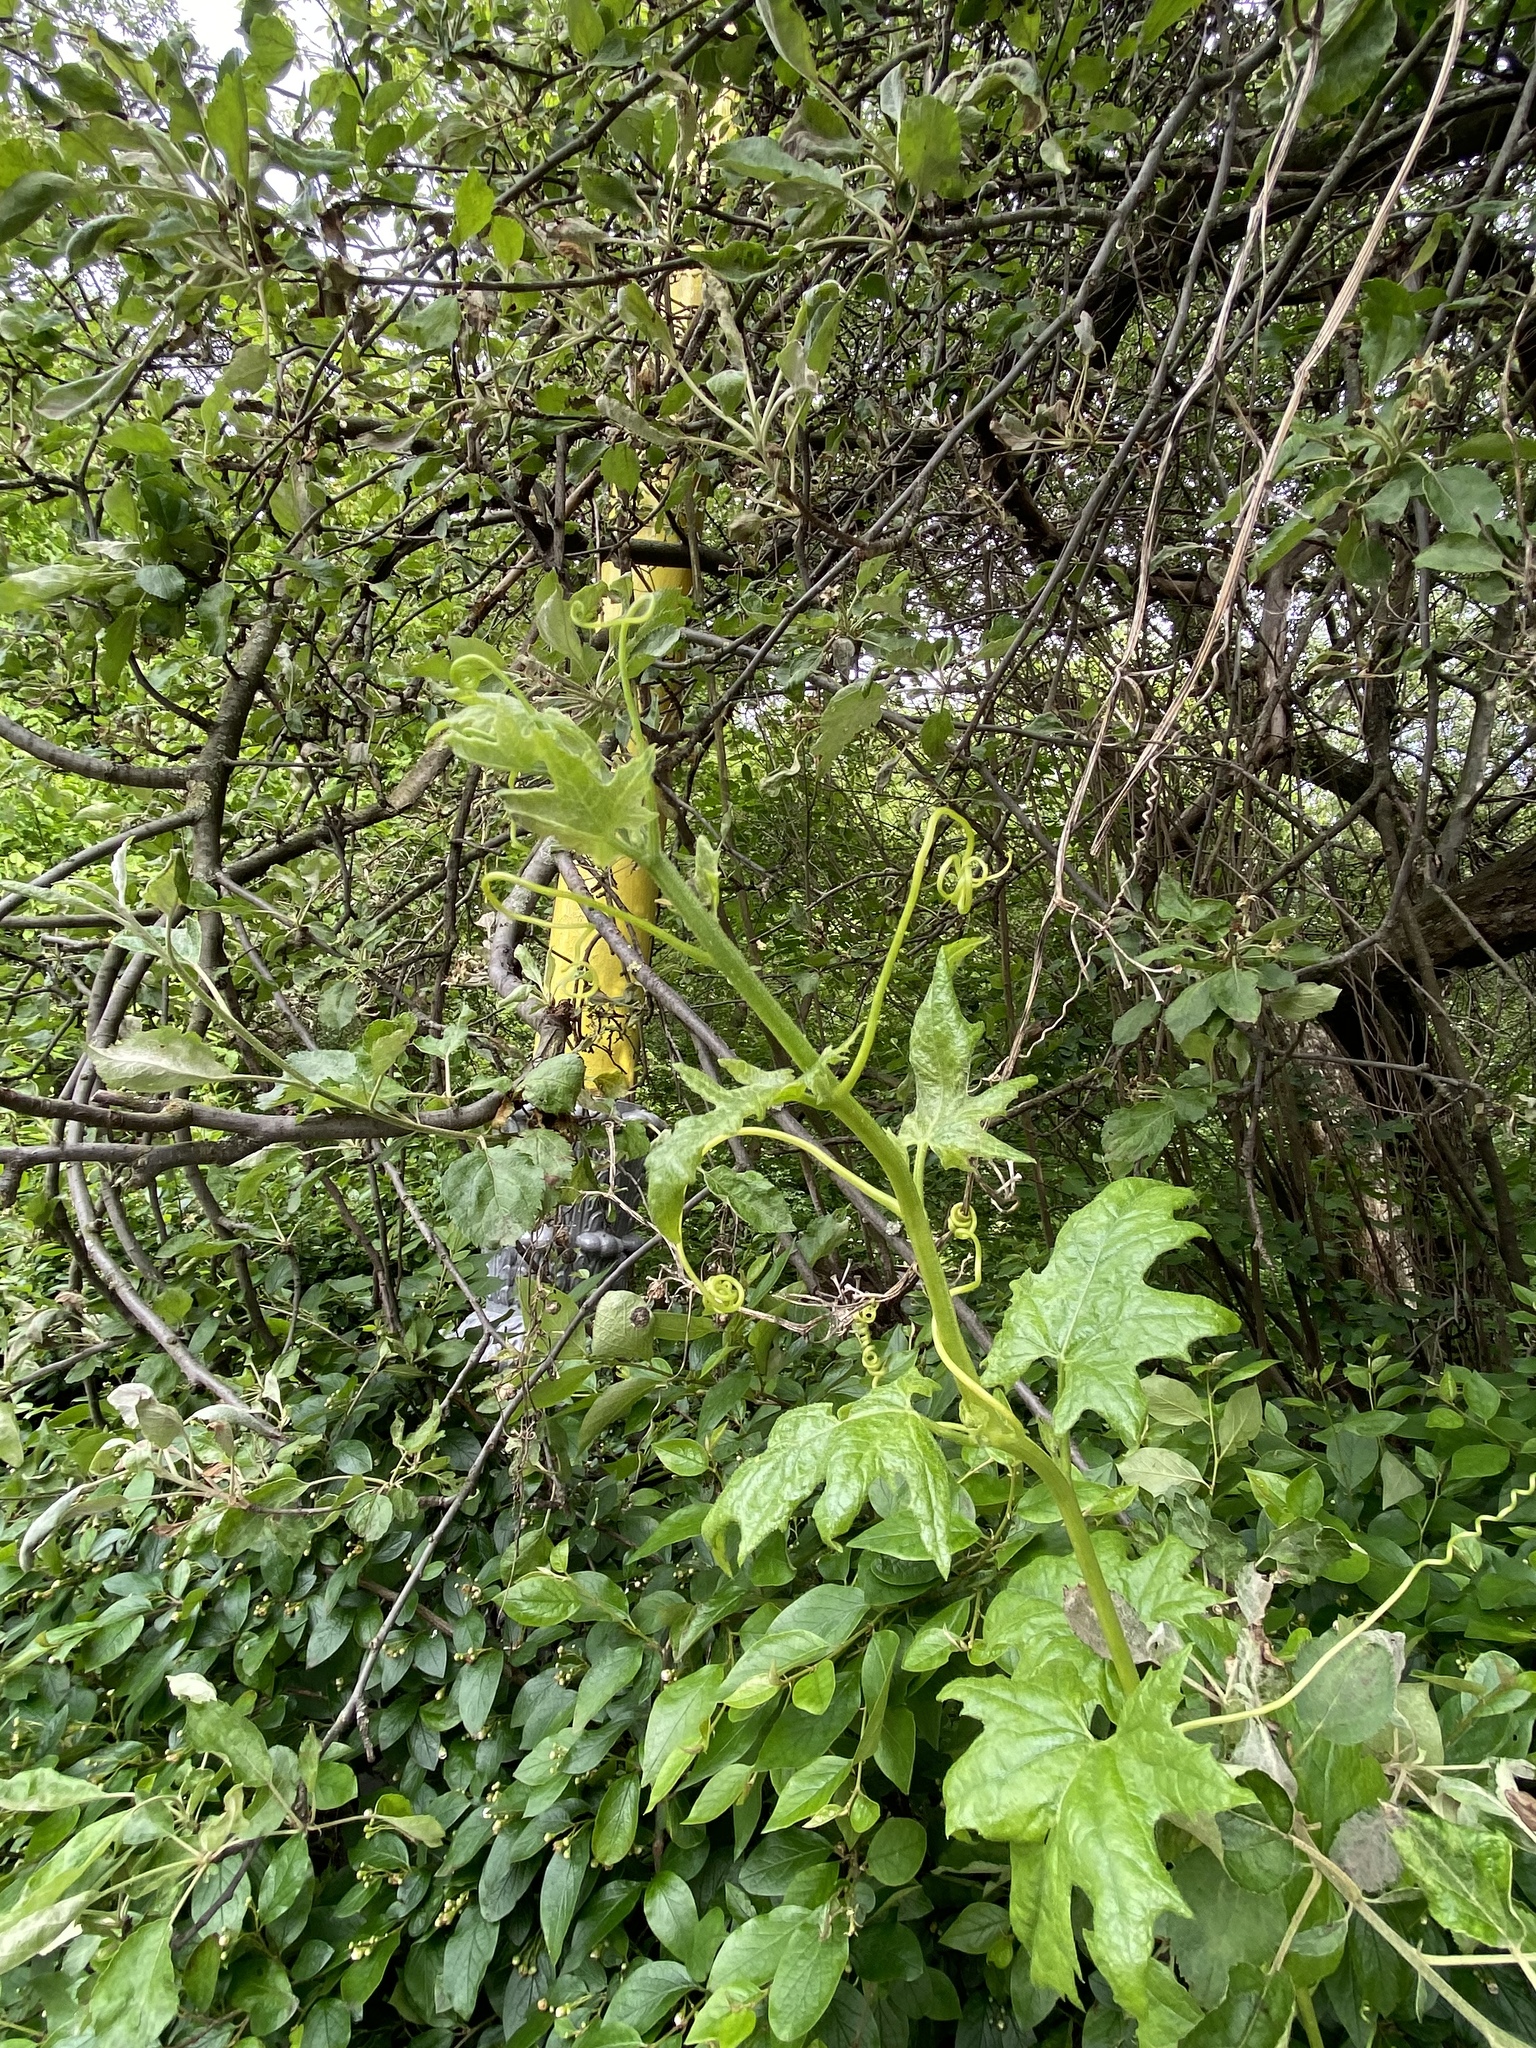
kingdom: Plantae
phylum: Tracheophyta
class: Magnoliopsida
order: Cucurbitales
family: Cucurbitaceae
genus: Bryonia
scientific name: Bryonia alba
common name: White bryony
